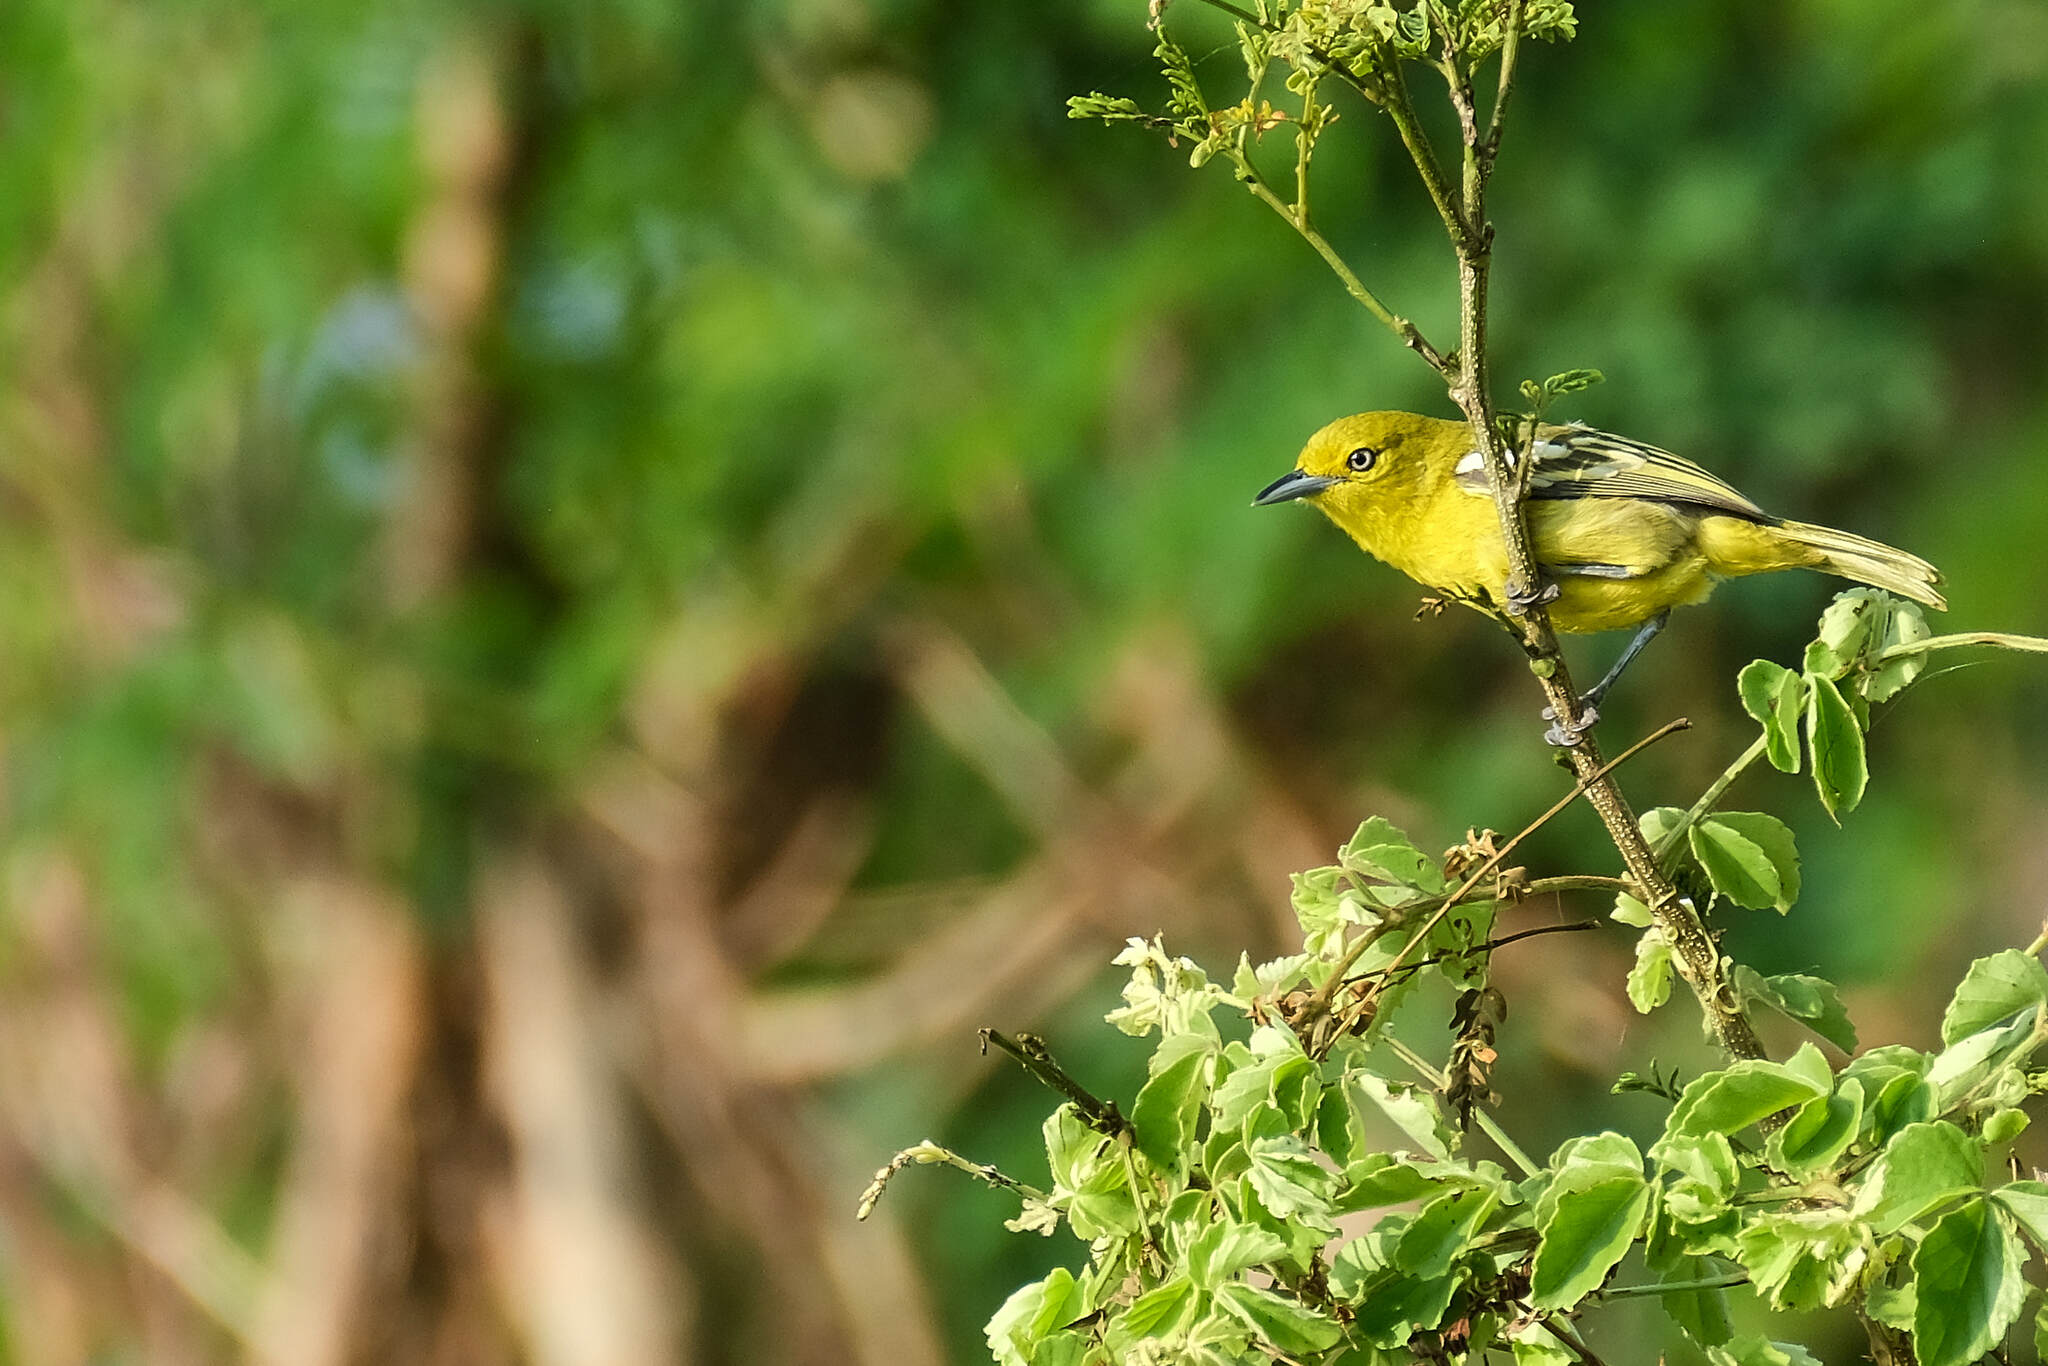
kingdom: Animalia
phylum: Chordata
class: Aves
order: Passeriformes
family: Aegithinidae
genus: Aegithina
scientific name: Aegithina tiphia
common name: Common iora
